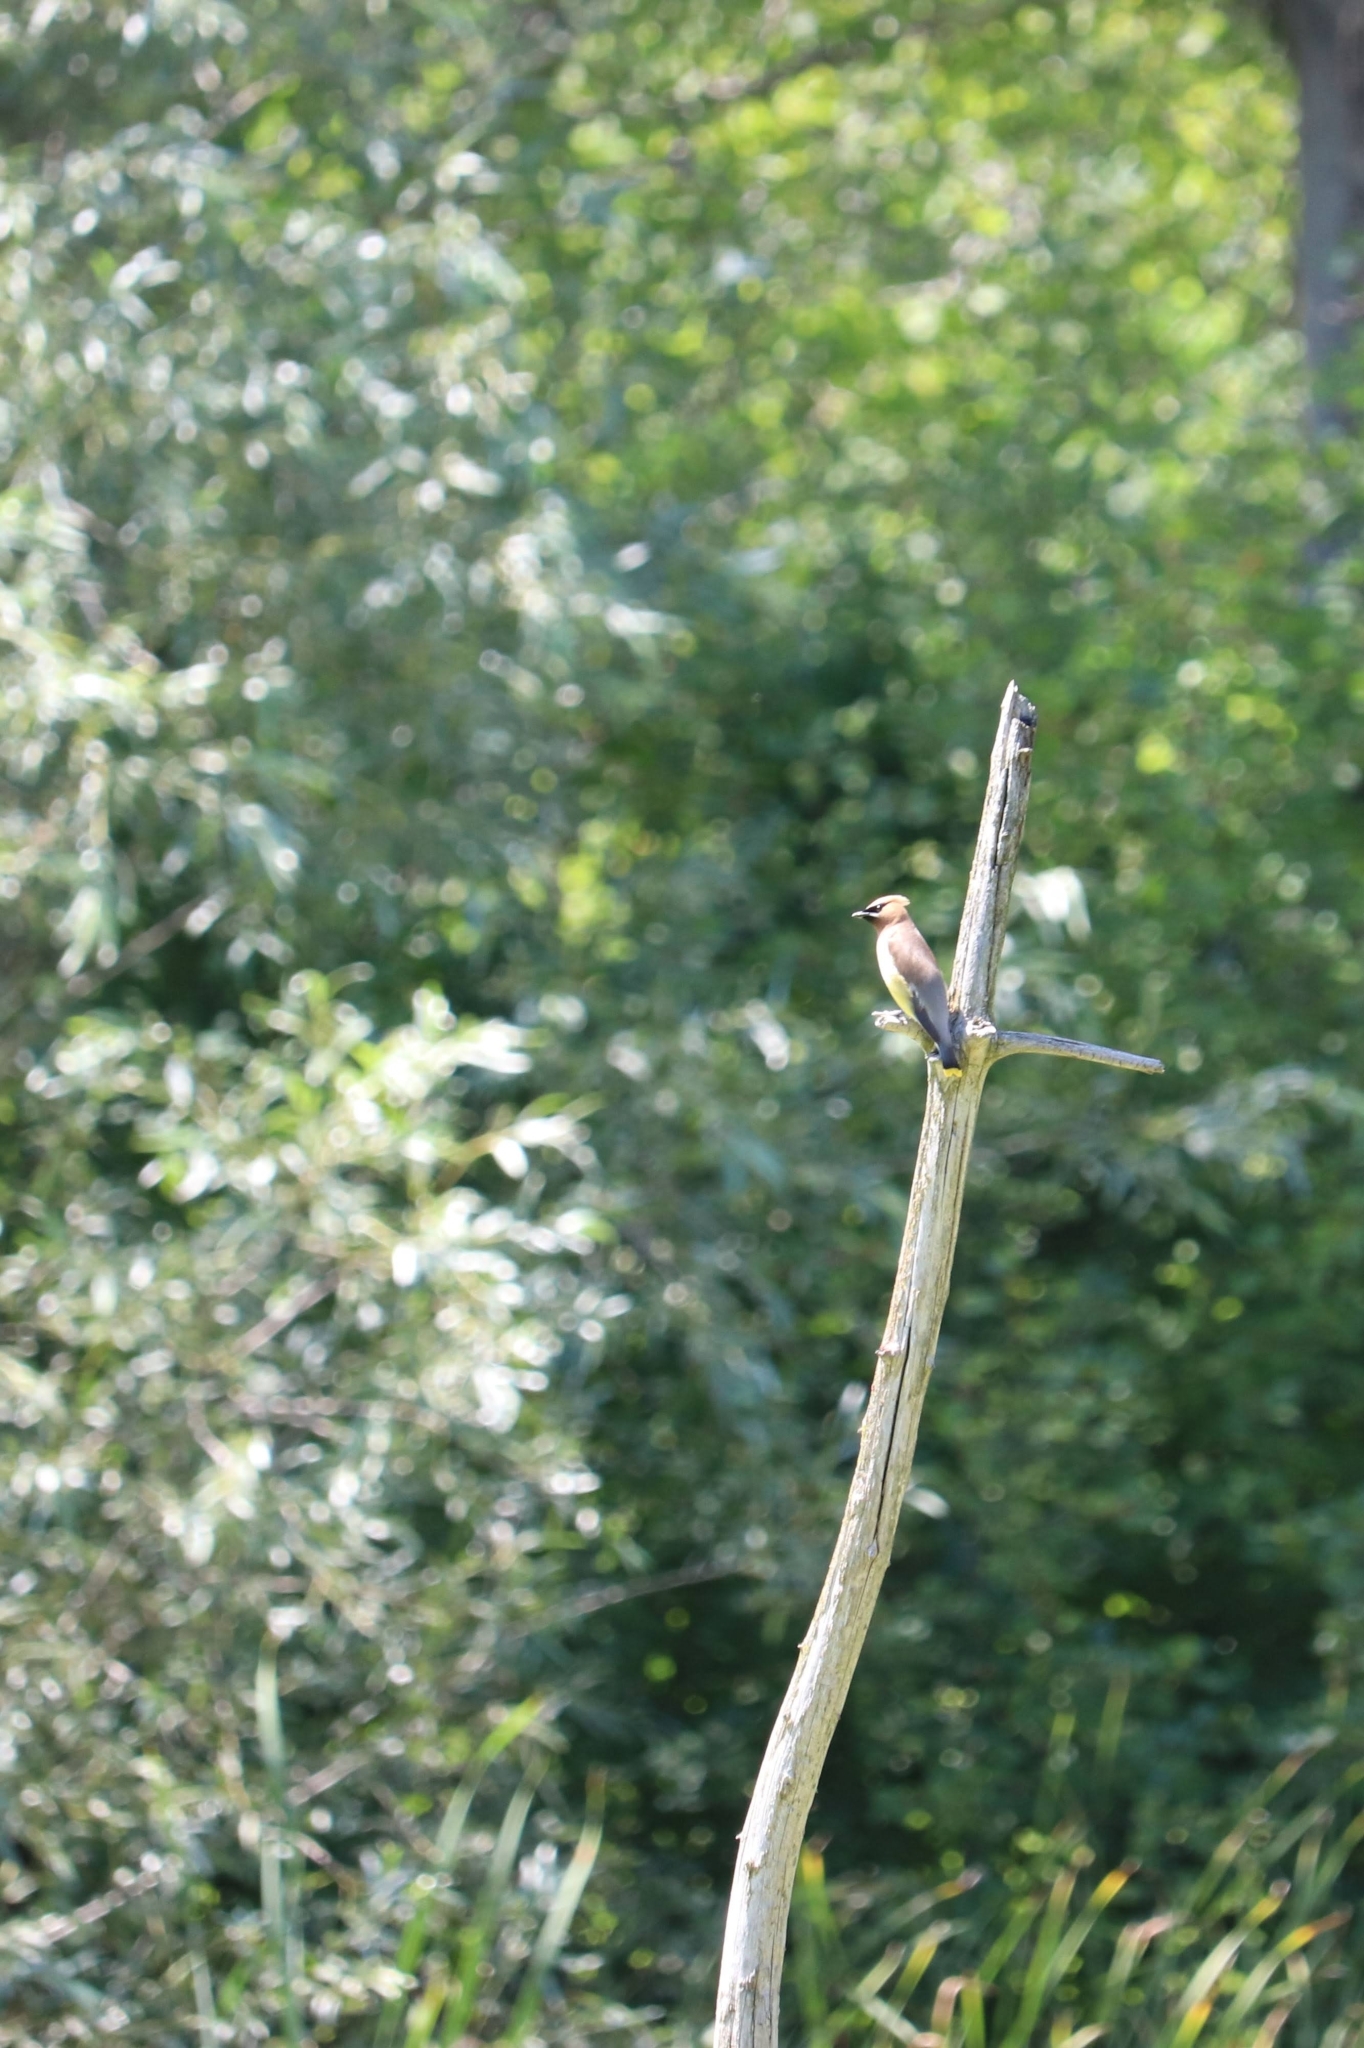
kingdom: Animalia
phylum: Chordata
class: Aves
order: Passeriformes
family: Bombycillidae
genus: Bombycilla
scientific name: Bombycilla cedrorum
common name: Cedar waxwing
